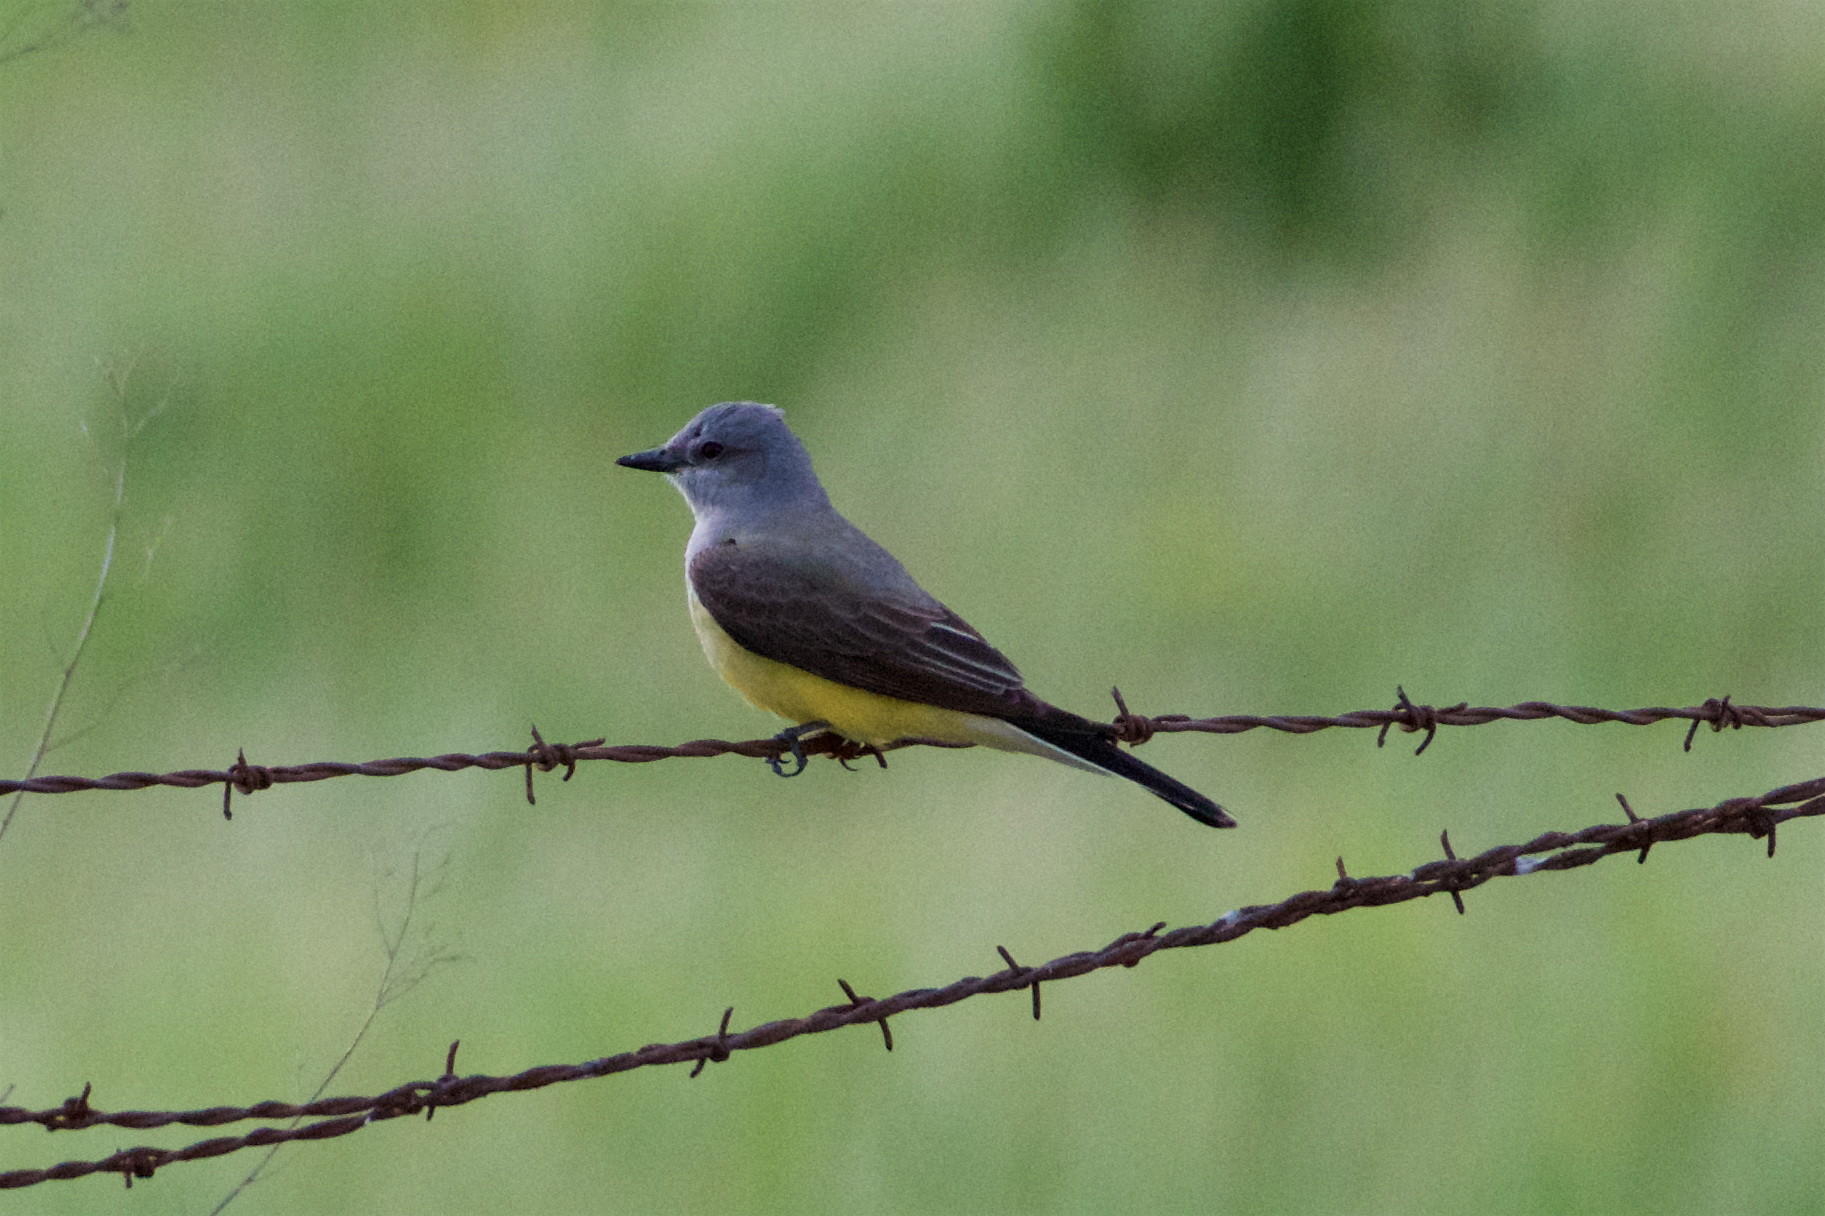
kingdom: Animalia
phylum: Chordata
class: Aves
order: Passeriformes
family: Tyrannidae
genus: Tyrannus
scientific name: Tyrannus verticalis
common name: Western kingbird
